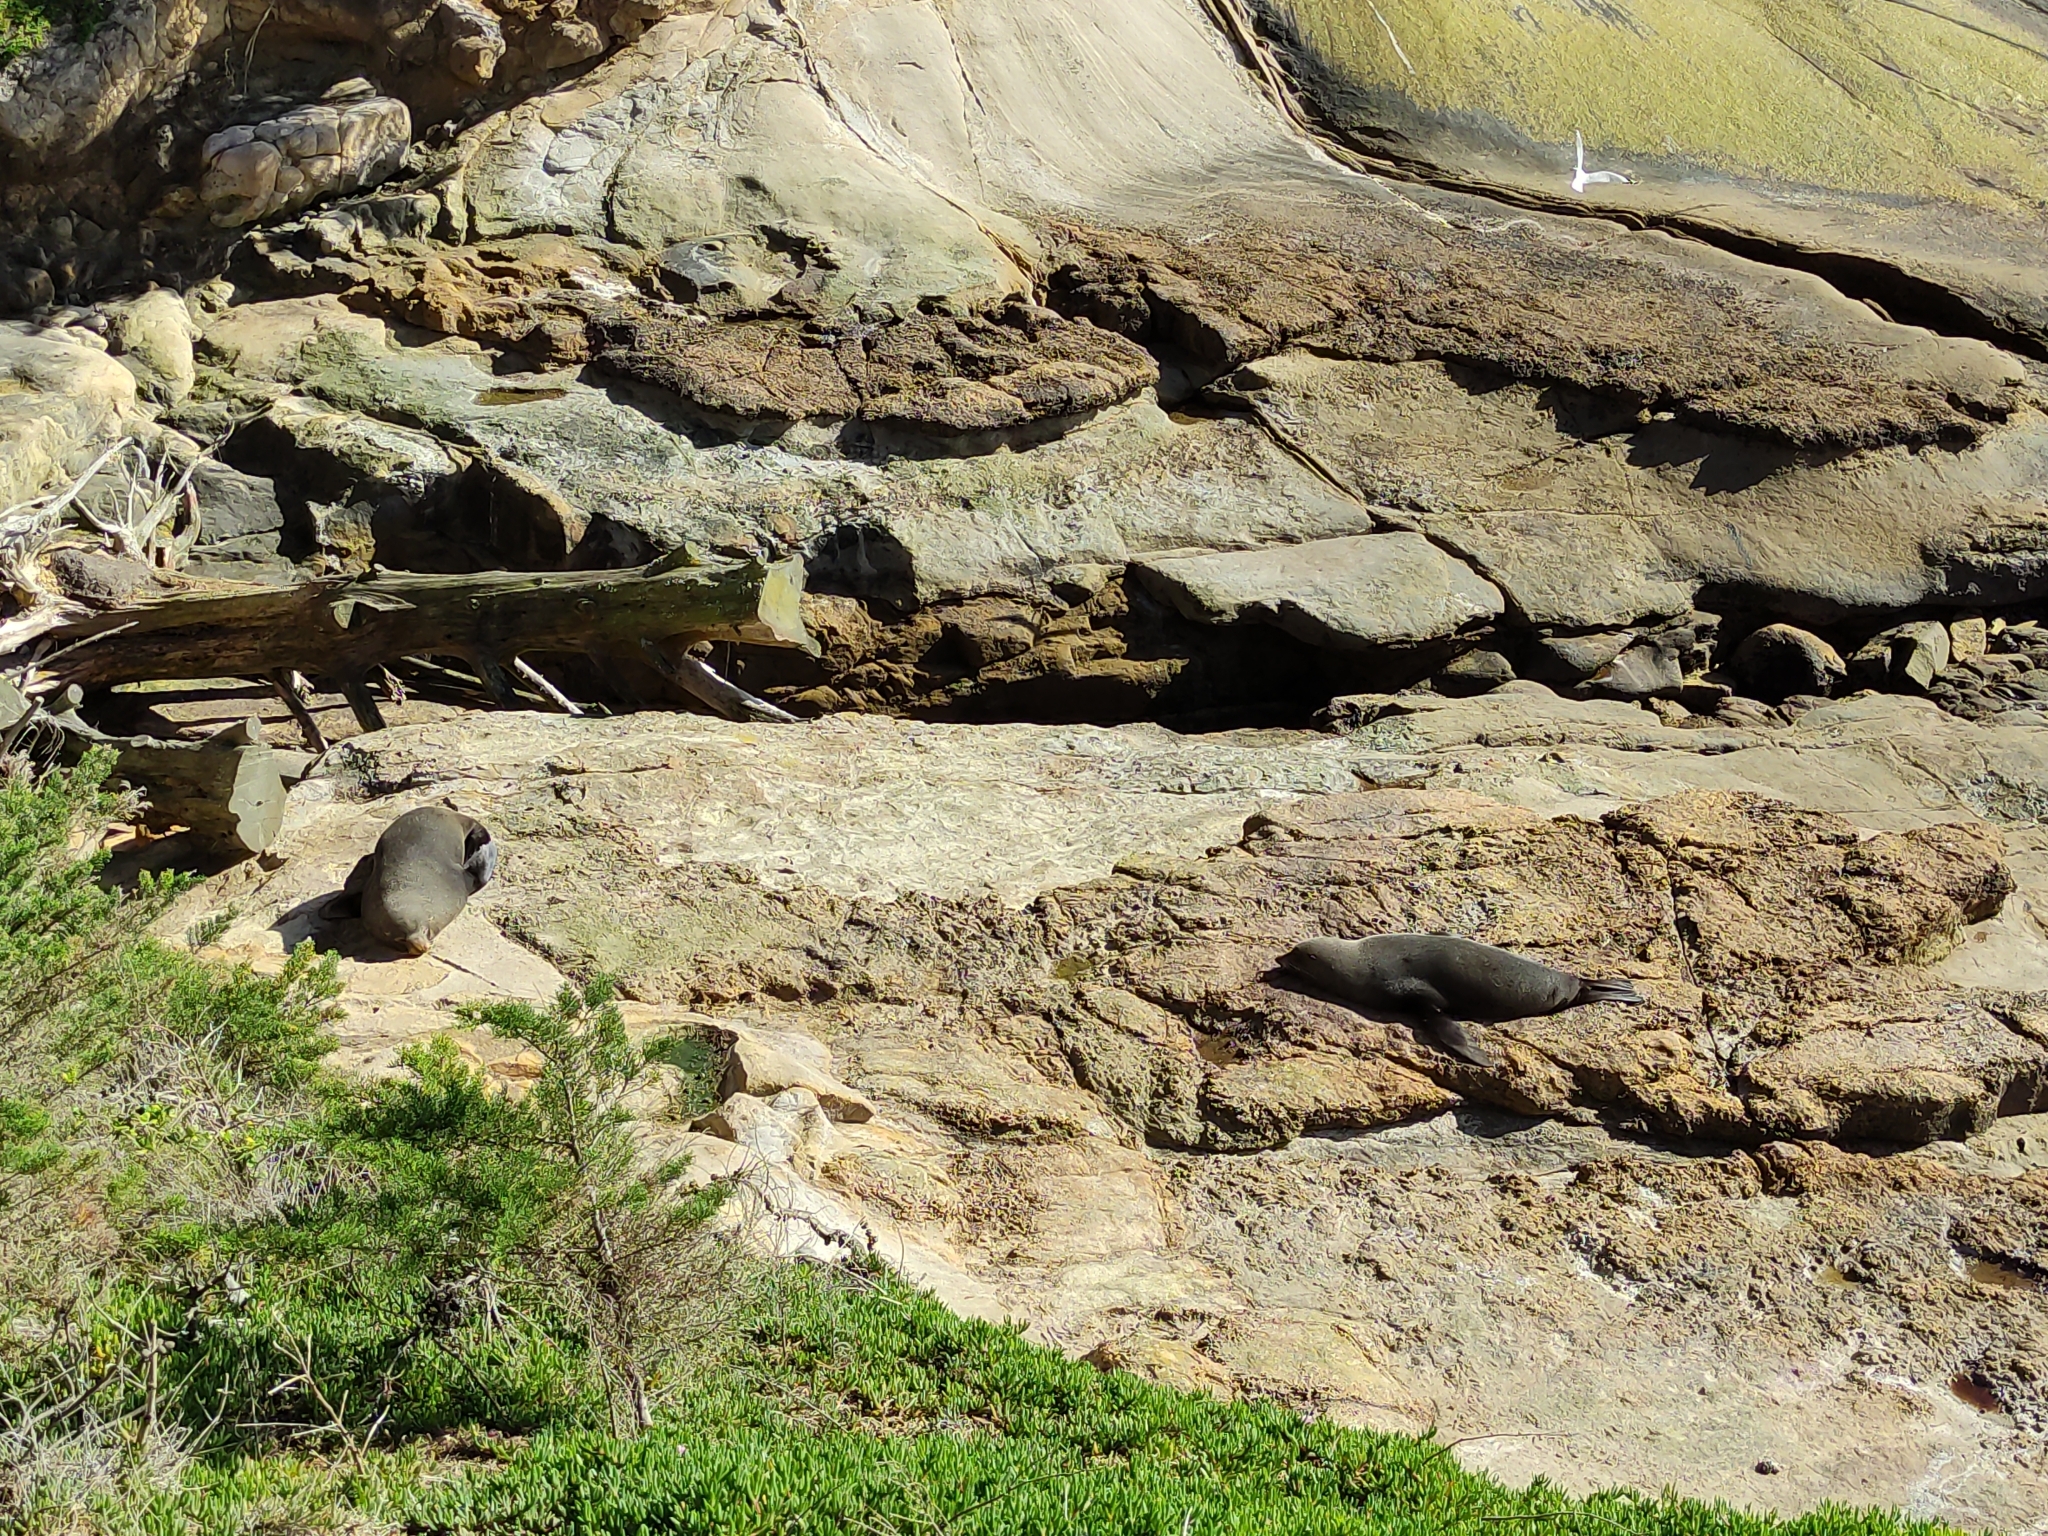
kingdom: Animalia
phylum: Chordata
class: Mammalia
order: Carnivora
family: Otariidae
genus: Arctocephalus
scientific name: Arctocephalus forsteri
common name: New zealand fur seal
